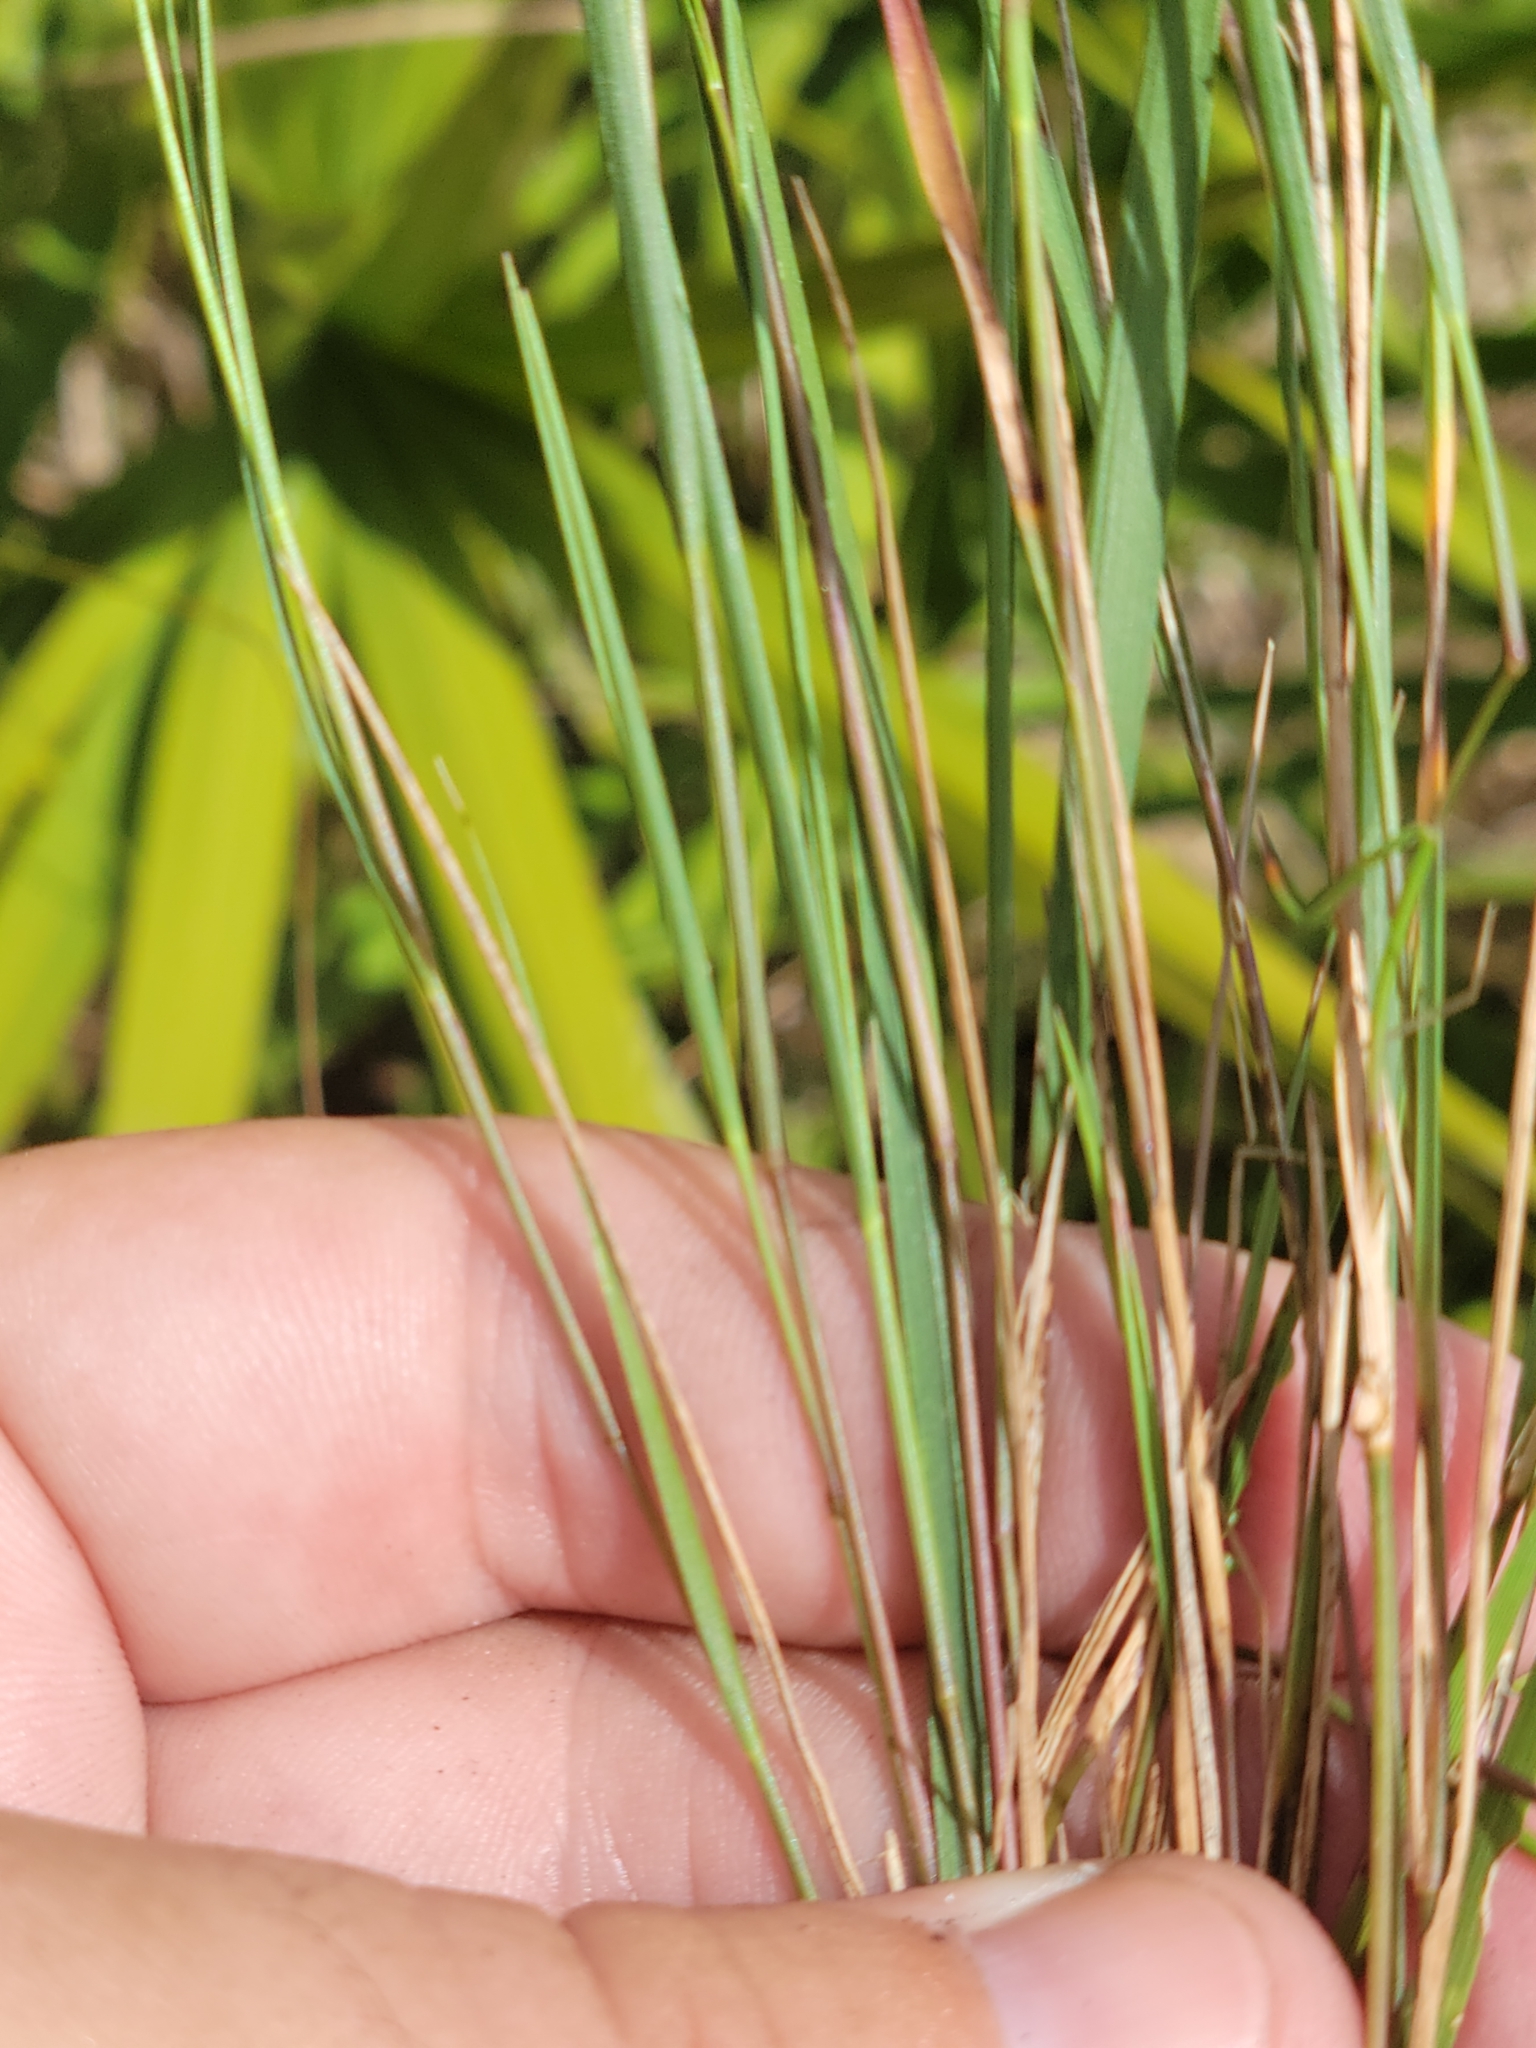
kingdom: Plantae
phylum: Tracheophyta
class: Liliopsida
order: Poales
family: Poaceae
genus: Dichanthelium
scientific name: Dichanthelium neuranthum
